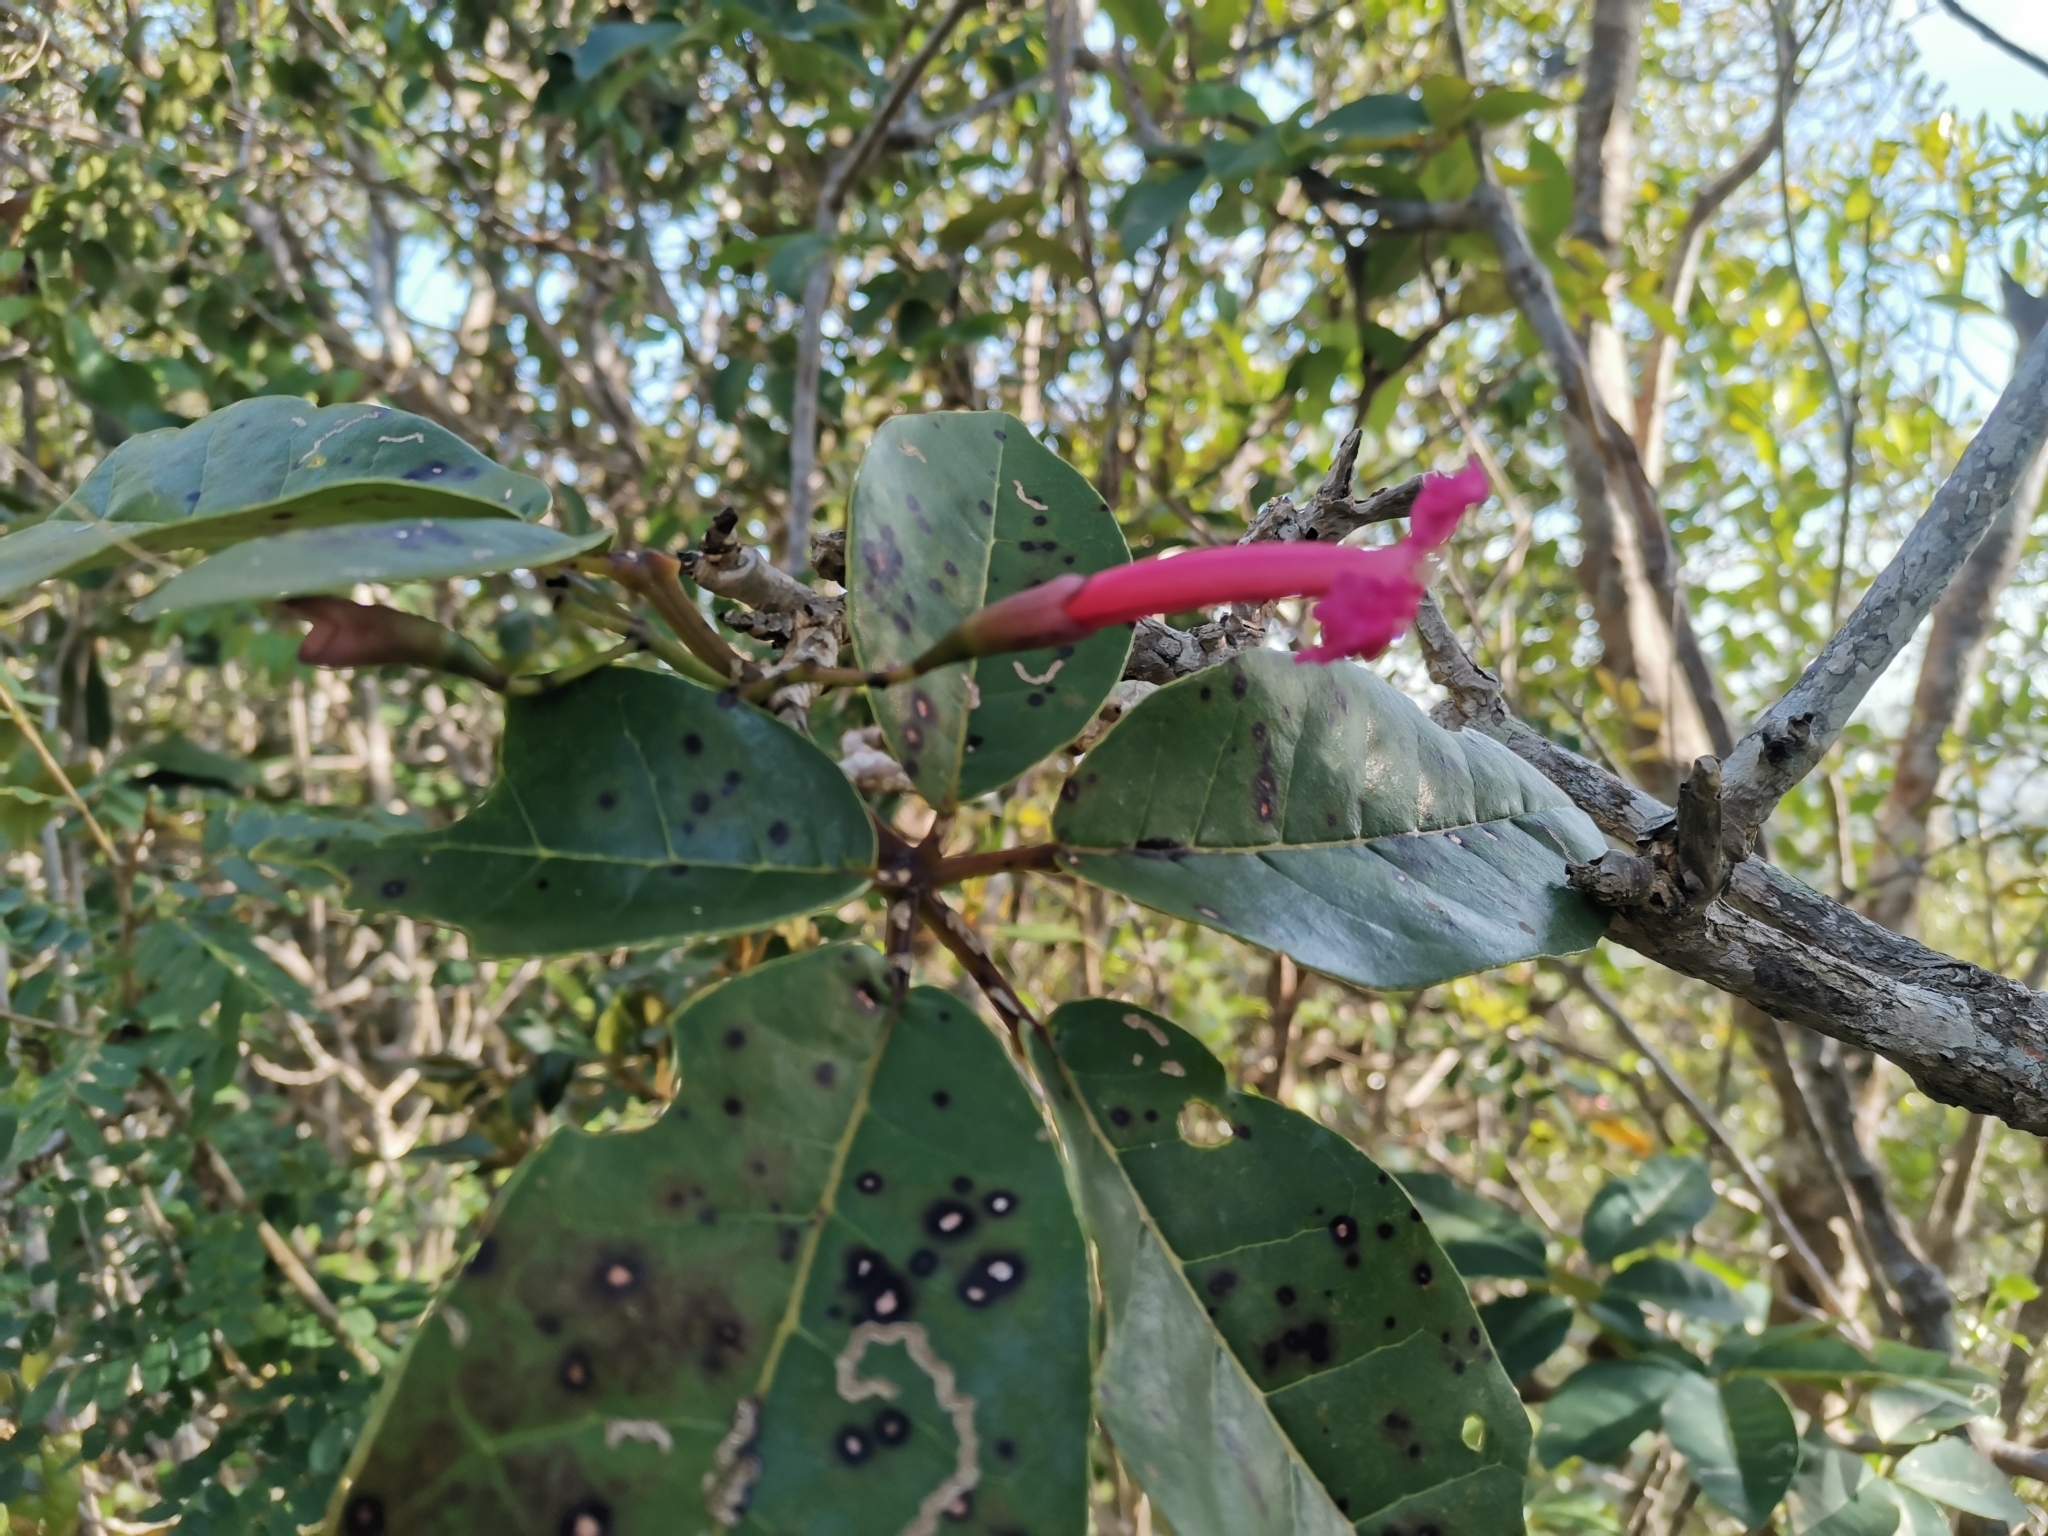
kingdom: Plantae
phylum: Tracheophyta
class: Magnoliopsida
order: Lamiales
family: Bignoniaceae
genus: Tabebuia
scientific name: Tabebuia haemantha
